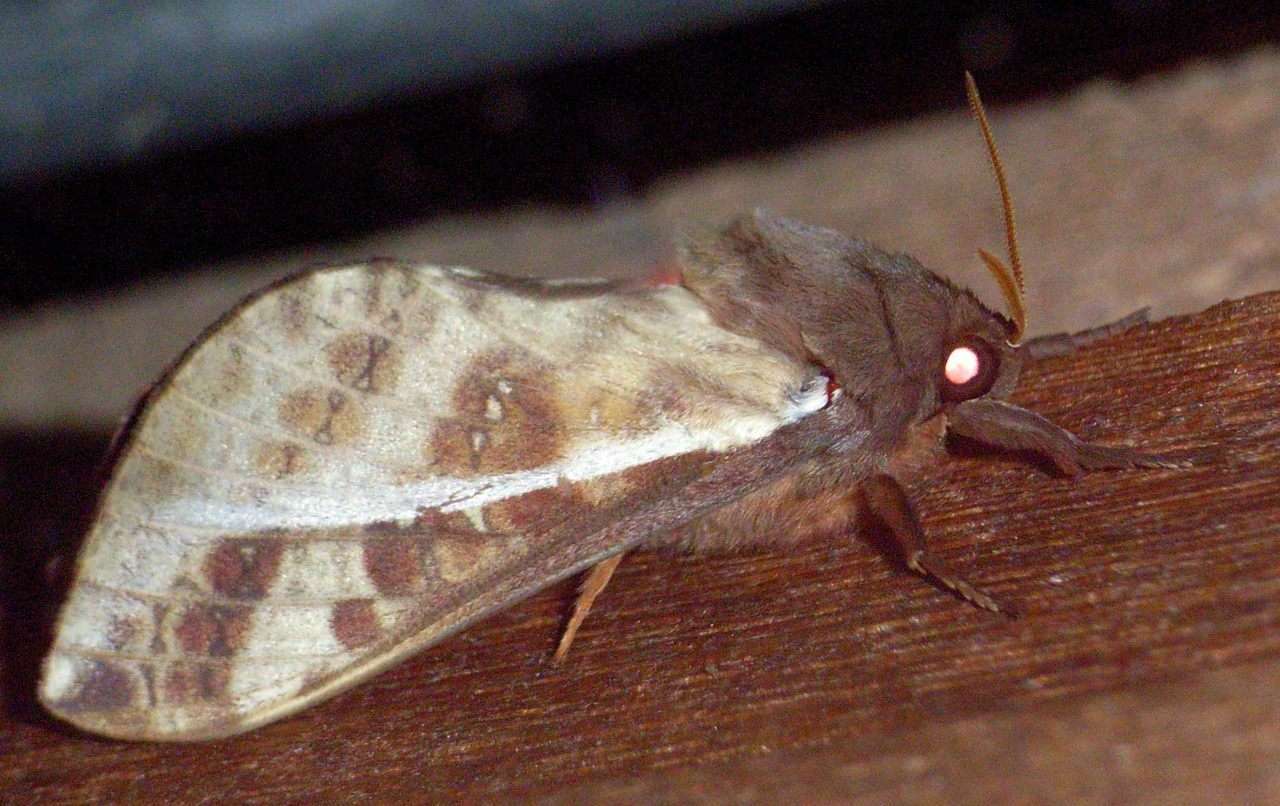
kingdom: Animalia
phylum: Arthropoda
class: Insecta
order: Lepidoptera
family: Hepialidae
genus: Oxycanus
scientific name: Oxycanus dirempta
